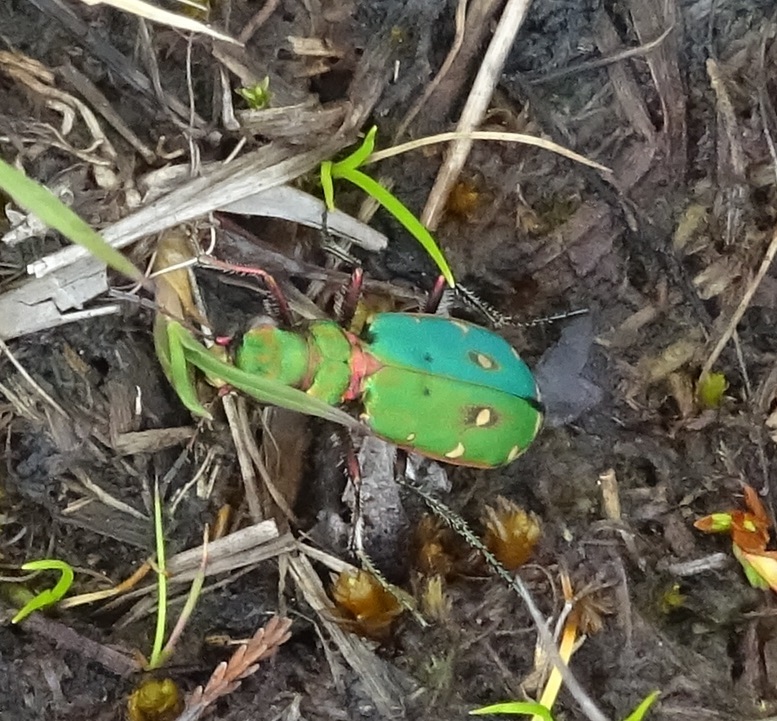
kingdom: Animalia
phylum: Arthropoda
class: Insecta
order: Coleoptera
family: Carabidae
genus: Cicindela
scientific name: Cicindela campestris
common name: Common tiger beetle
